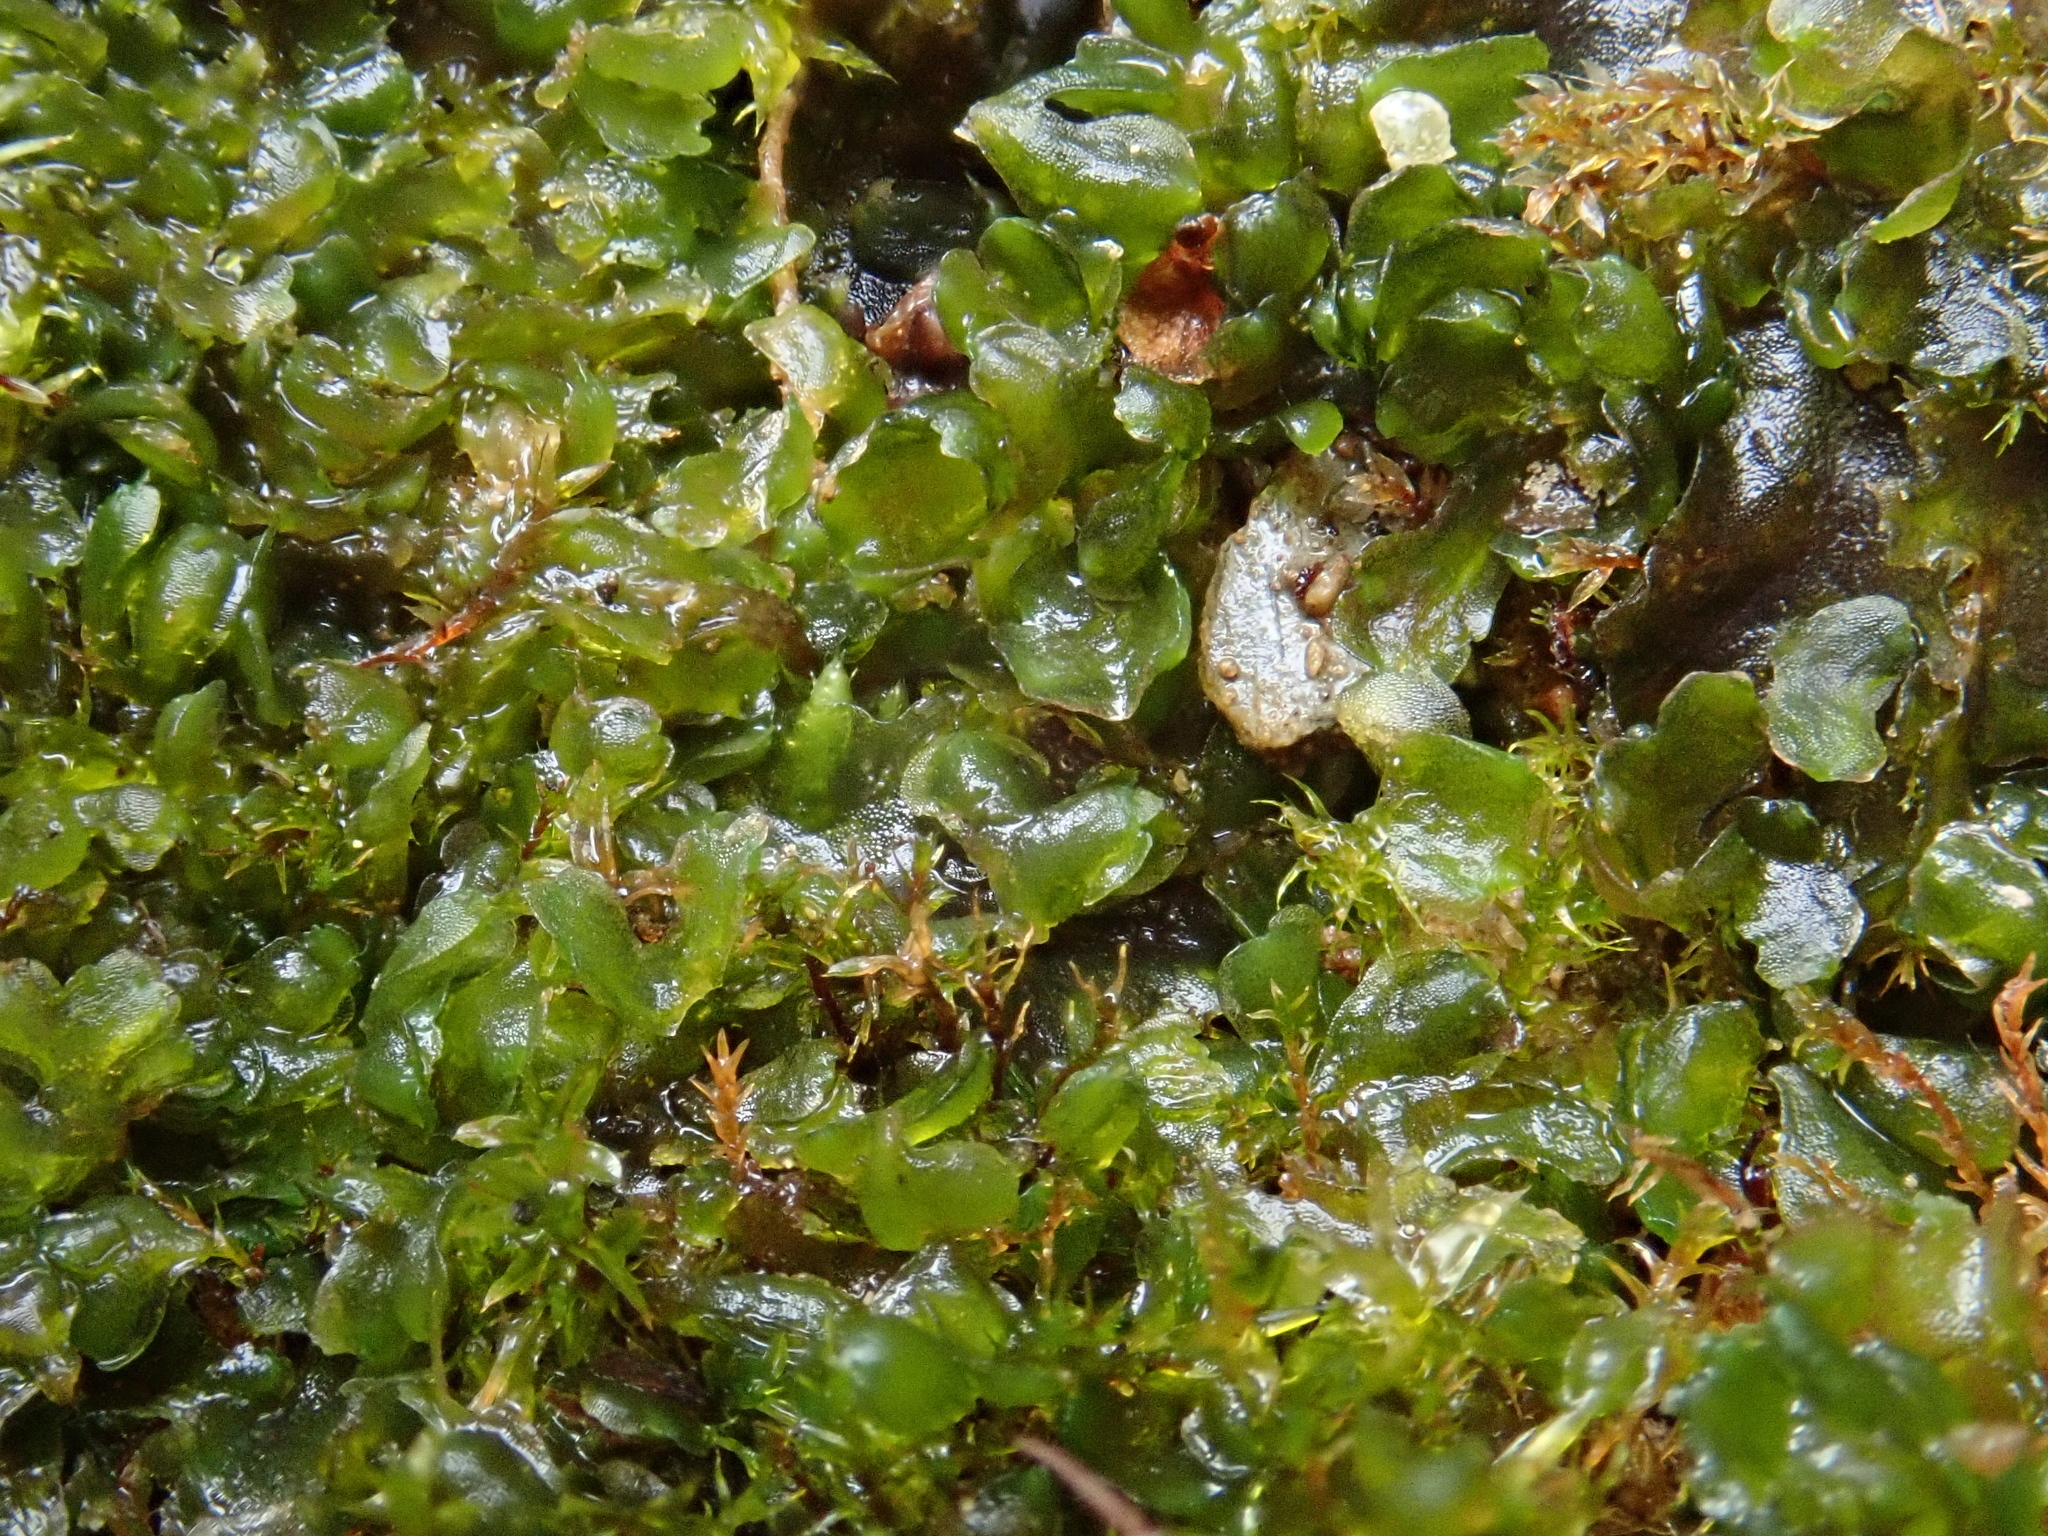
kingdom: Plantae
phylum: Marchantiophyta
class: Jungermanniopsida
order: Pelliales
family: Pelliaceae
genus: Apopellia
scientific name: Apopellia endiviifolia
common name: Endive pellia
